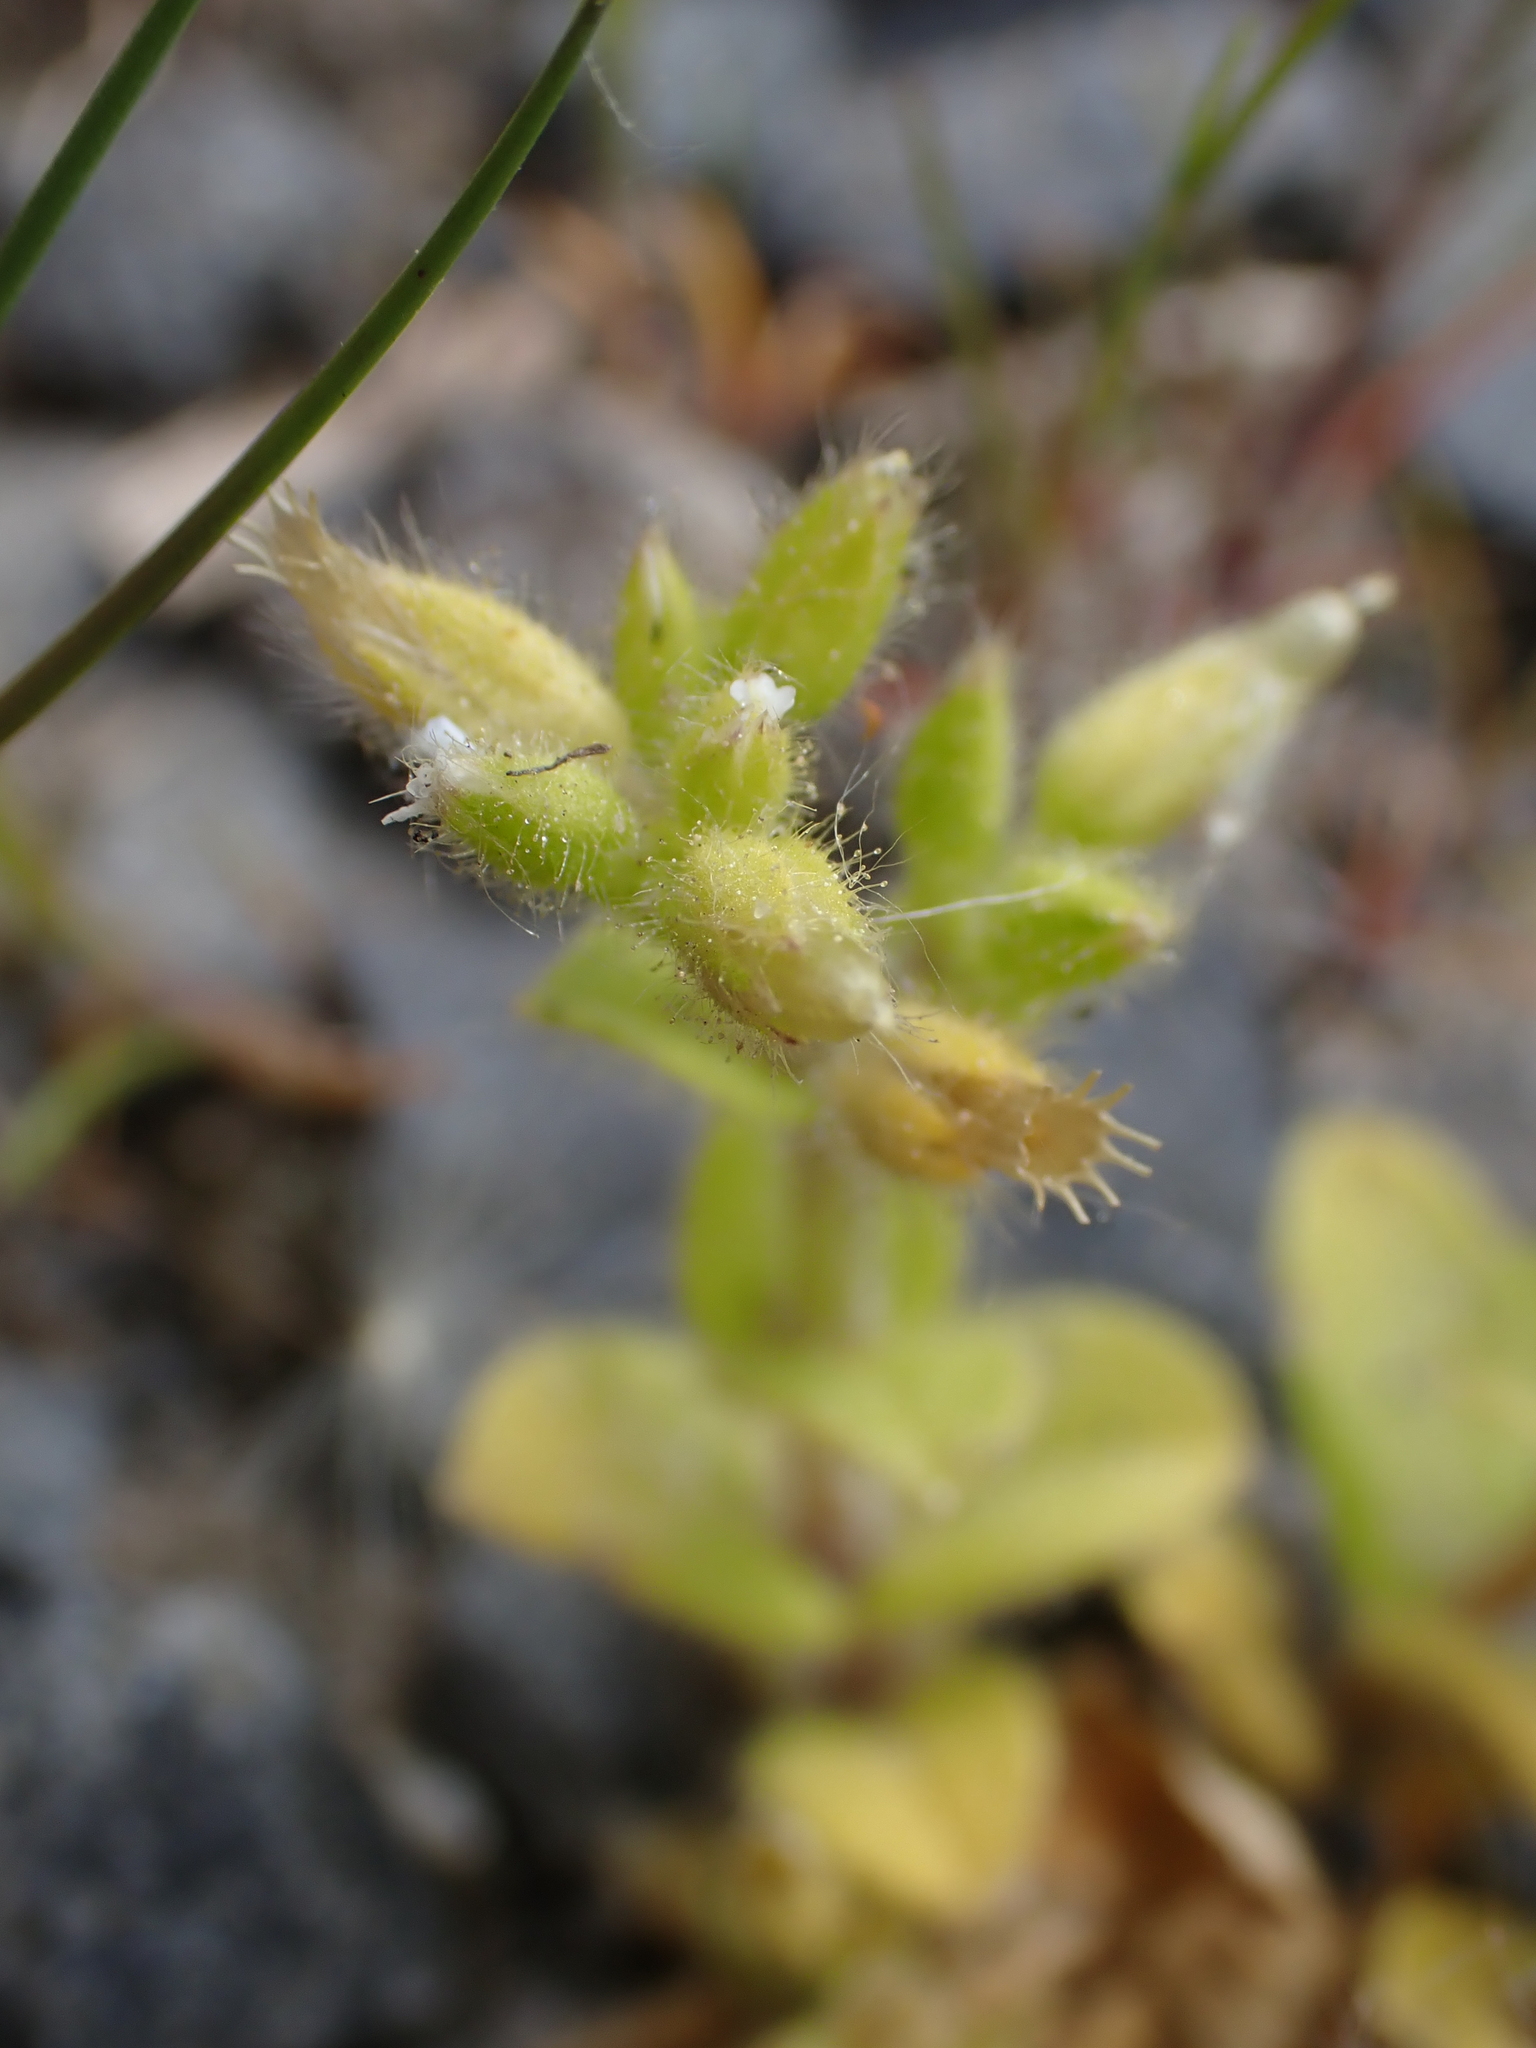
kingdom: Plantae
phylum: Tracheophyta
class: Magnoliopsida
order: Caryophyllales
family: Caryophyllaceae
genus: Cerastium
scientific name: Cerastium glomeratum
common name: Sticky chickweed
